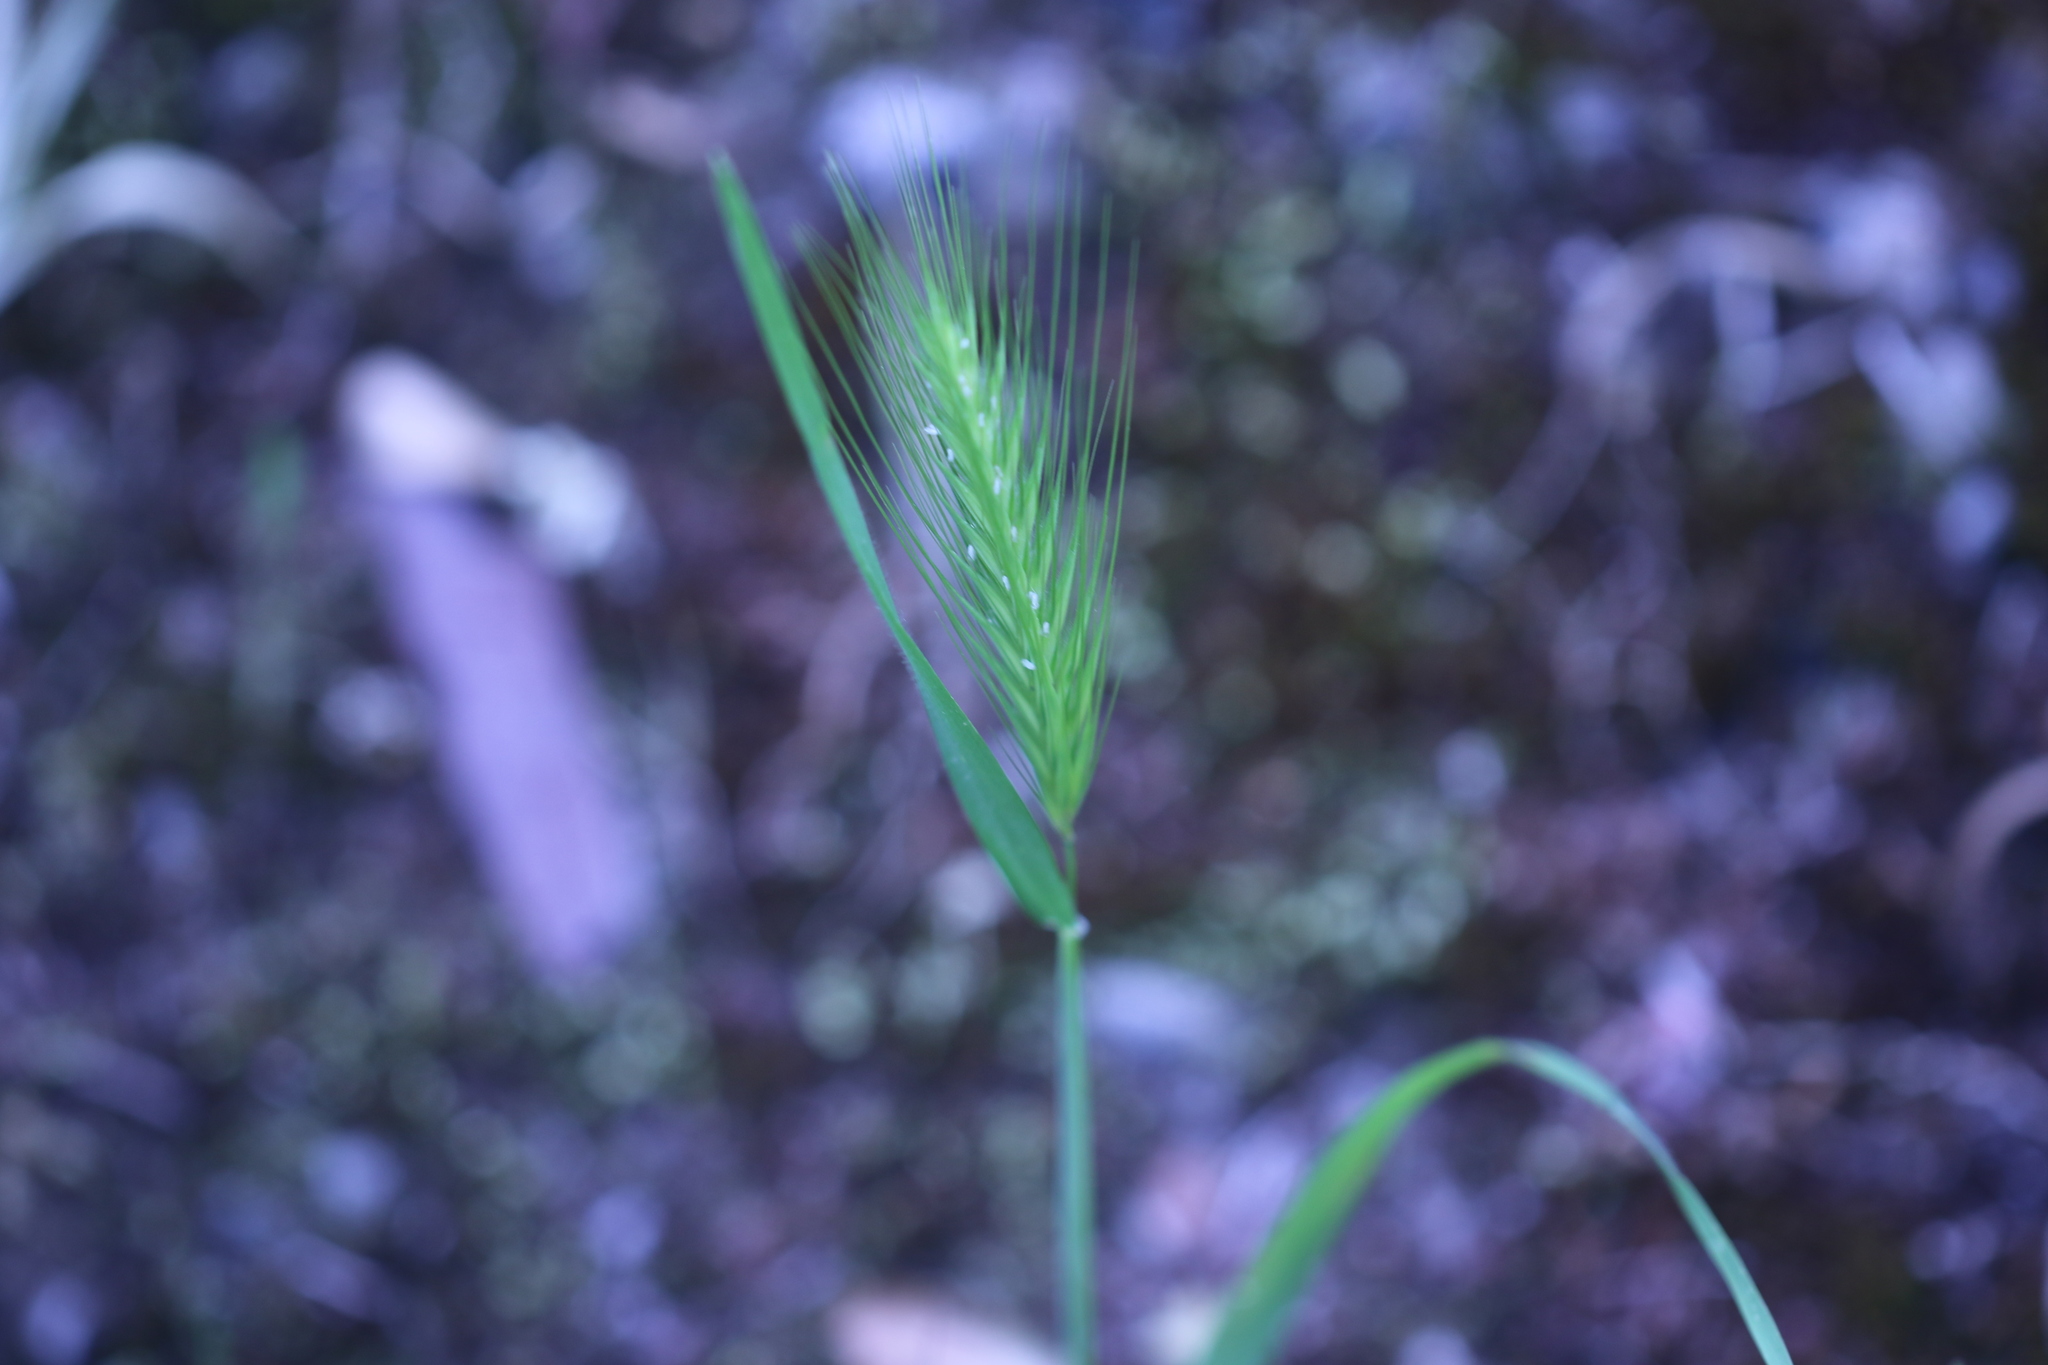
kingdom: Plantae
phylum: Tracheophyta
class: Liliopsida
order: Poales
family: Poaceae
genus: Hordeum
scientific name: Hordeum murinum
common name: Wall barley
